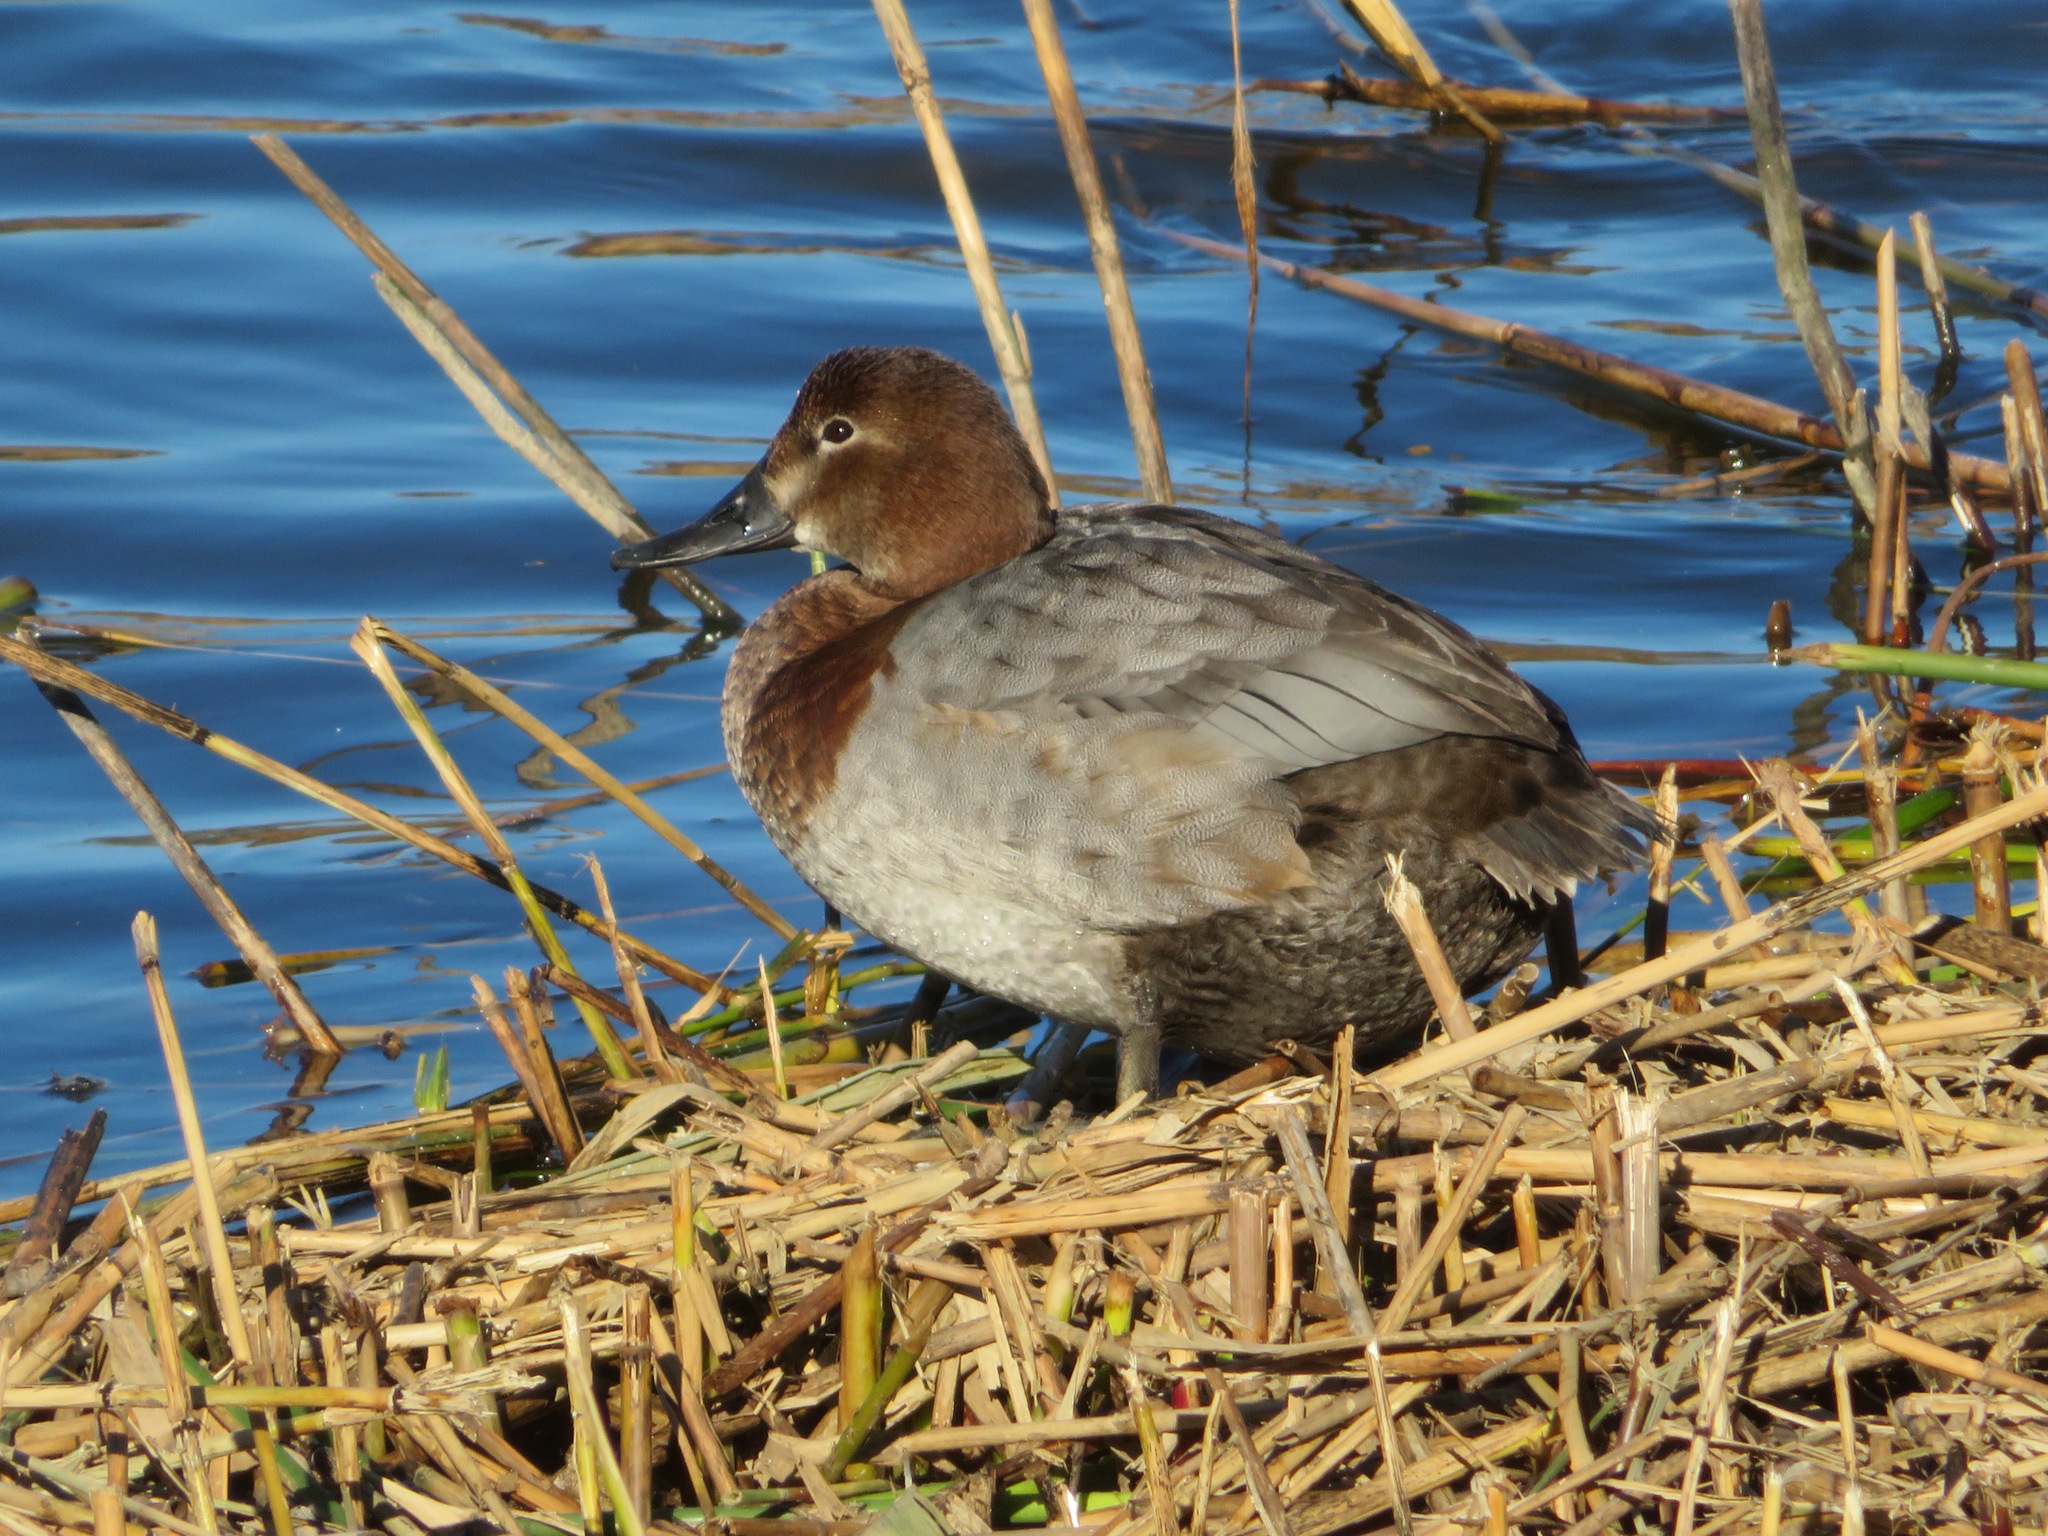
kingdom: Animalia
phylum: Chordata
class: Aves
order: Anseriformes
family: Anatidae
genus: Aythya
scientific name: Aythya ferina
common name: Common pochard
